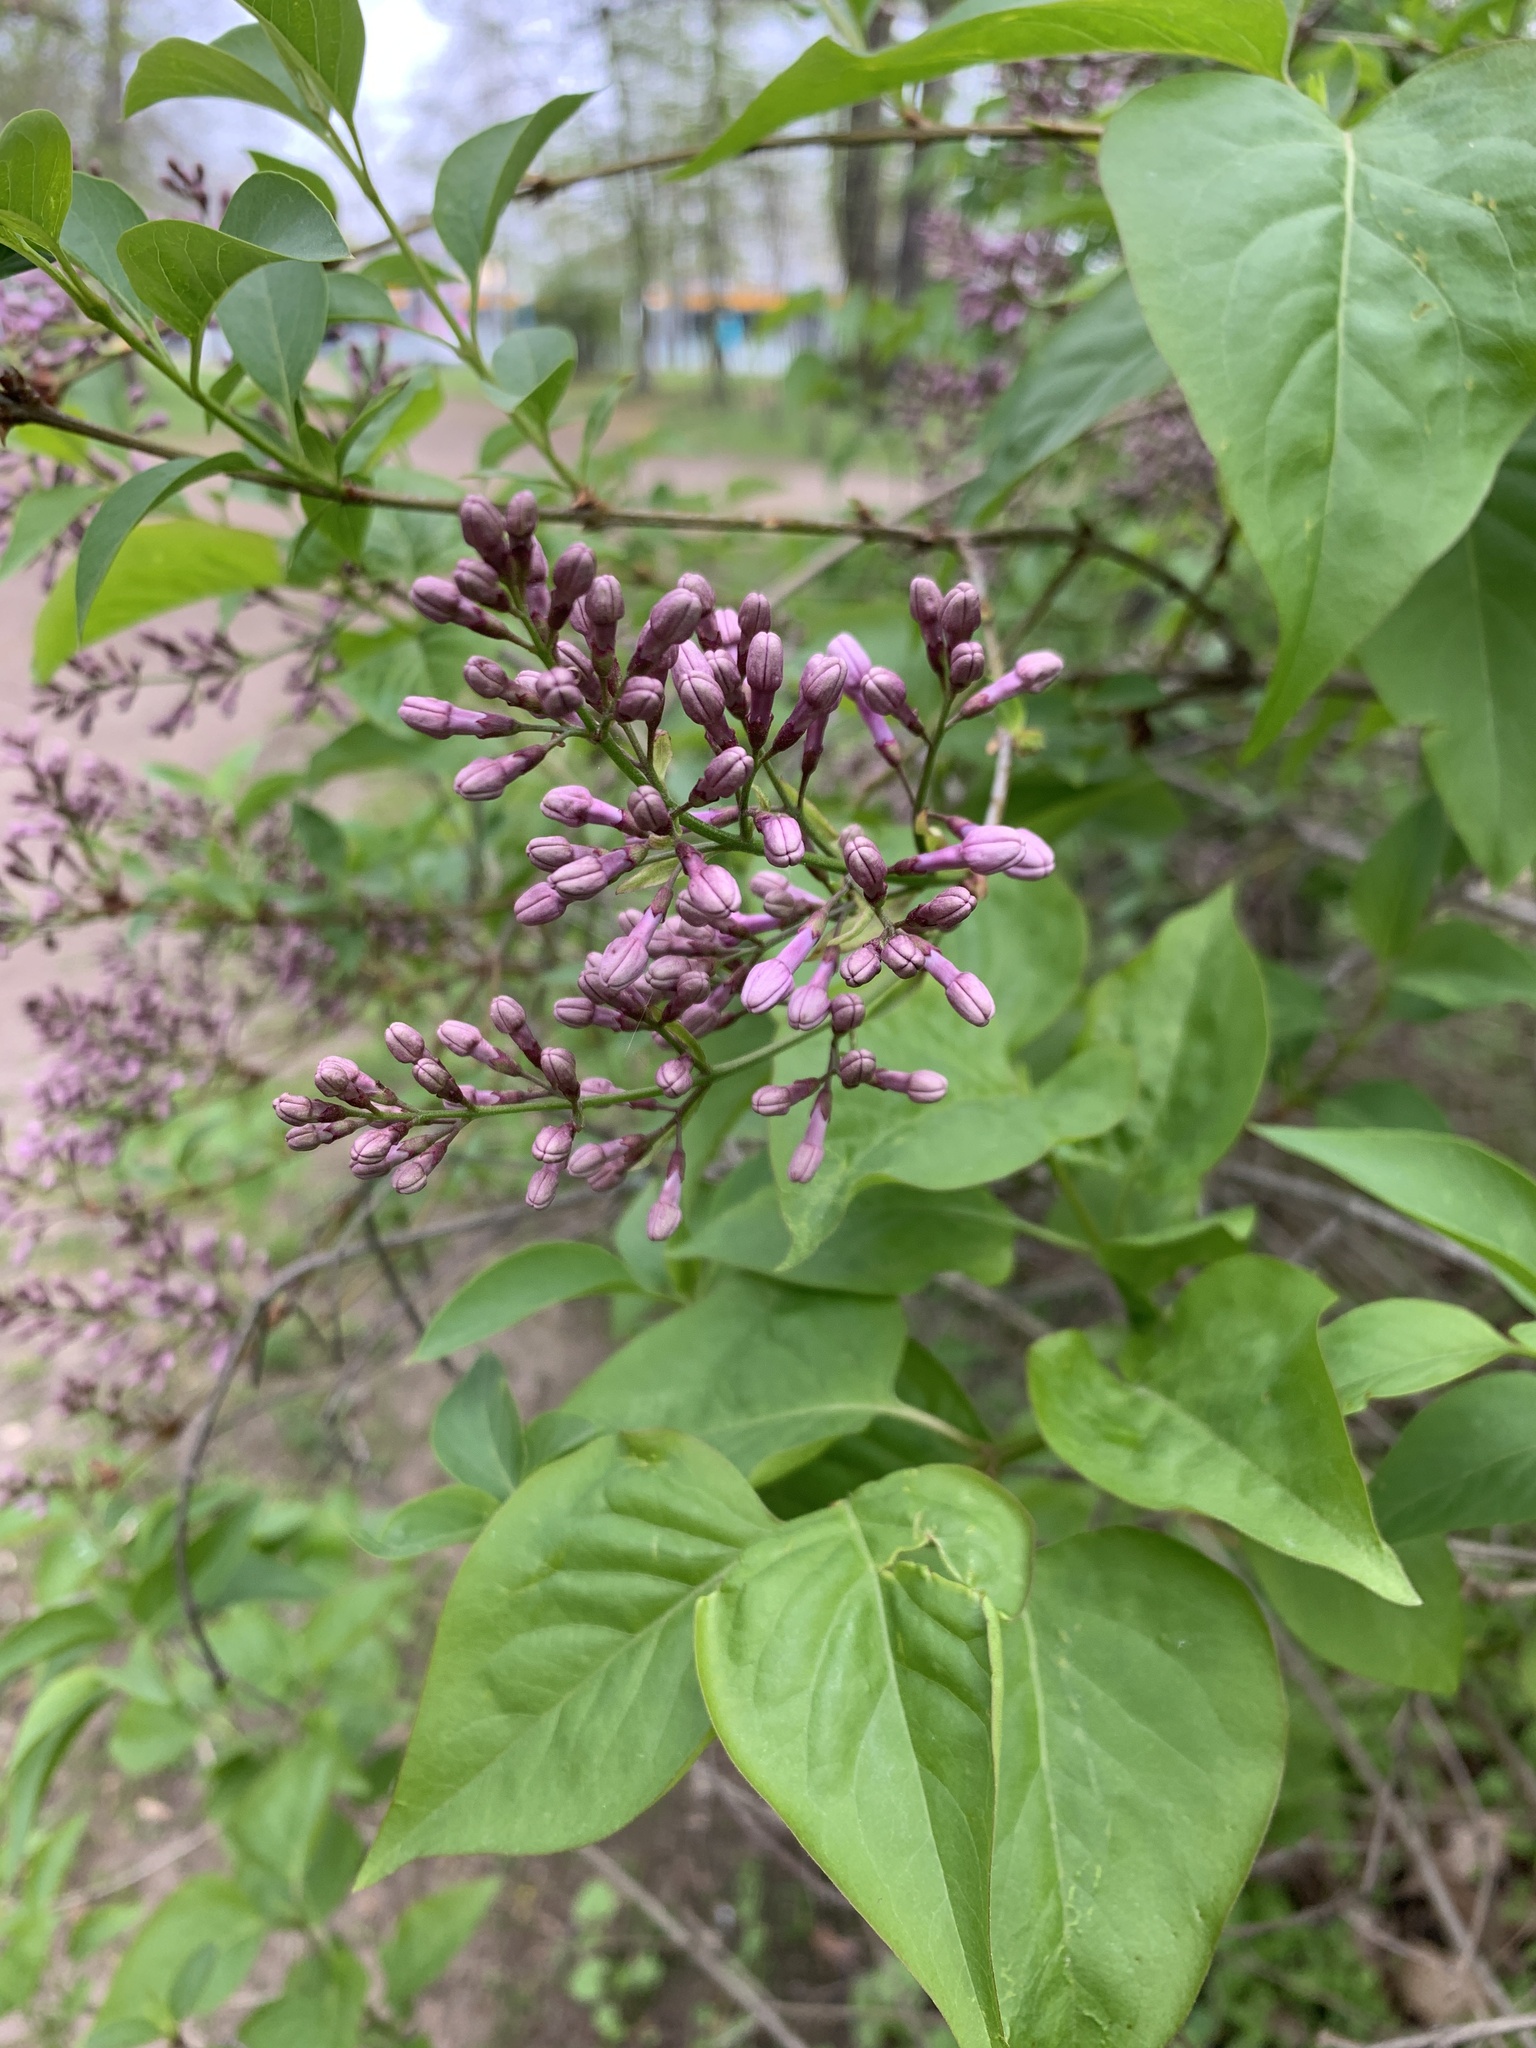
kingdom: Plantae
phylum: Tracheophyta
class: Magnoliopsida
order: Lamiales
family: Oleaceae
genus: Syringa
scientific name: Syringa vulgaris
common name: Common lilac
